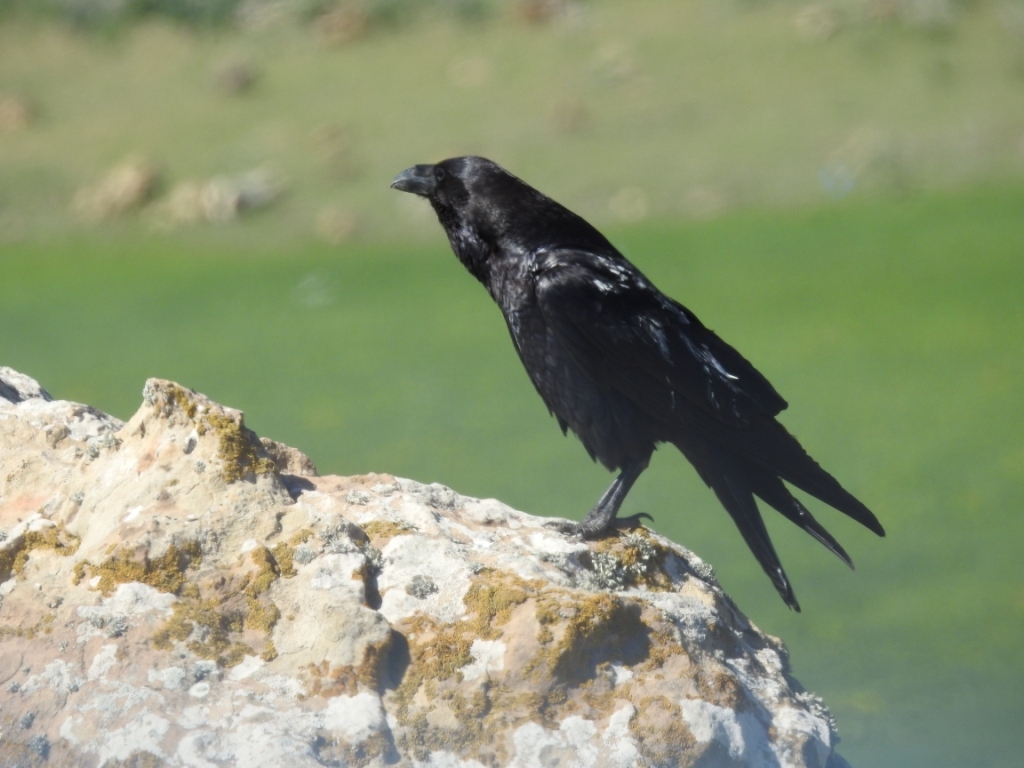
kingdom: Animalia
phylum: Chordata
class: Aves
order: Passeriformes
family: Corvidae
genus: Corvus
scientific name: Corvus corax
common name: Common raven
